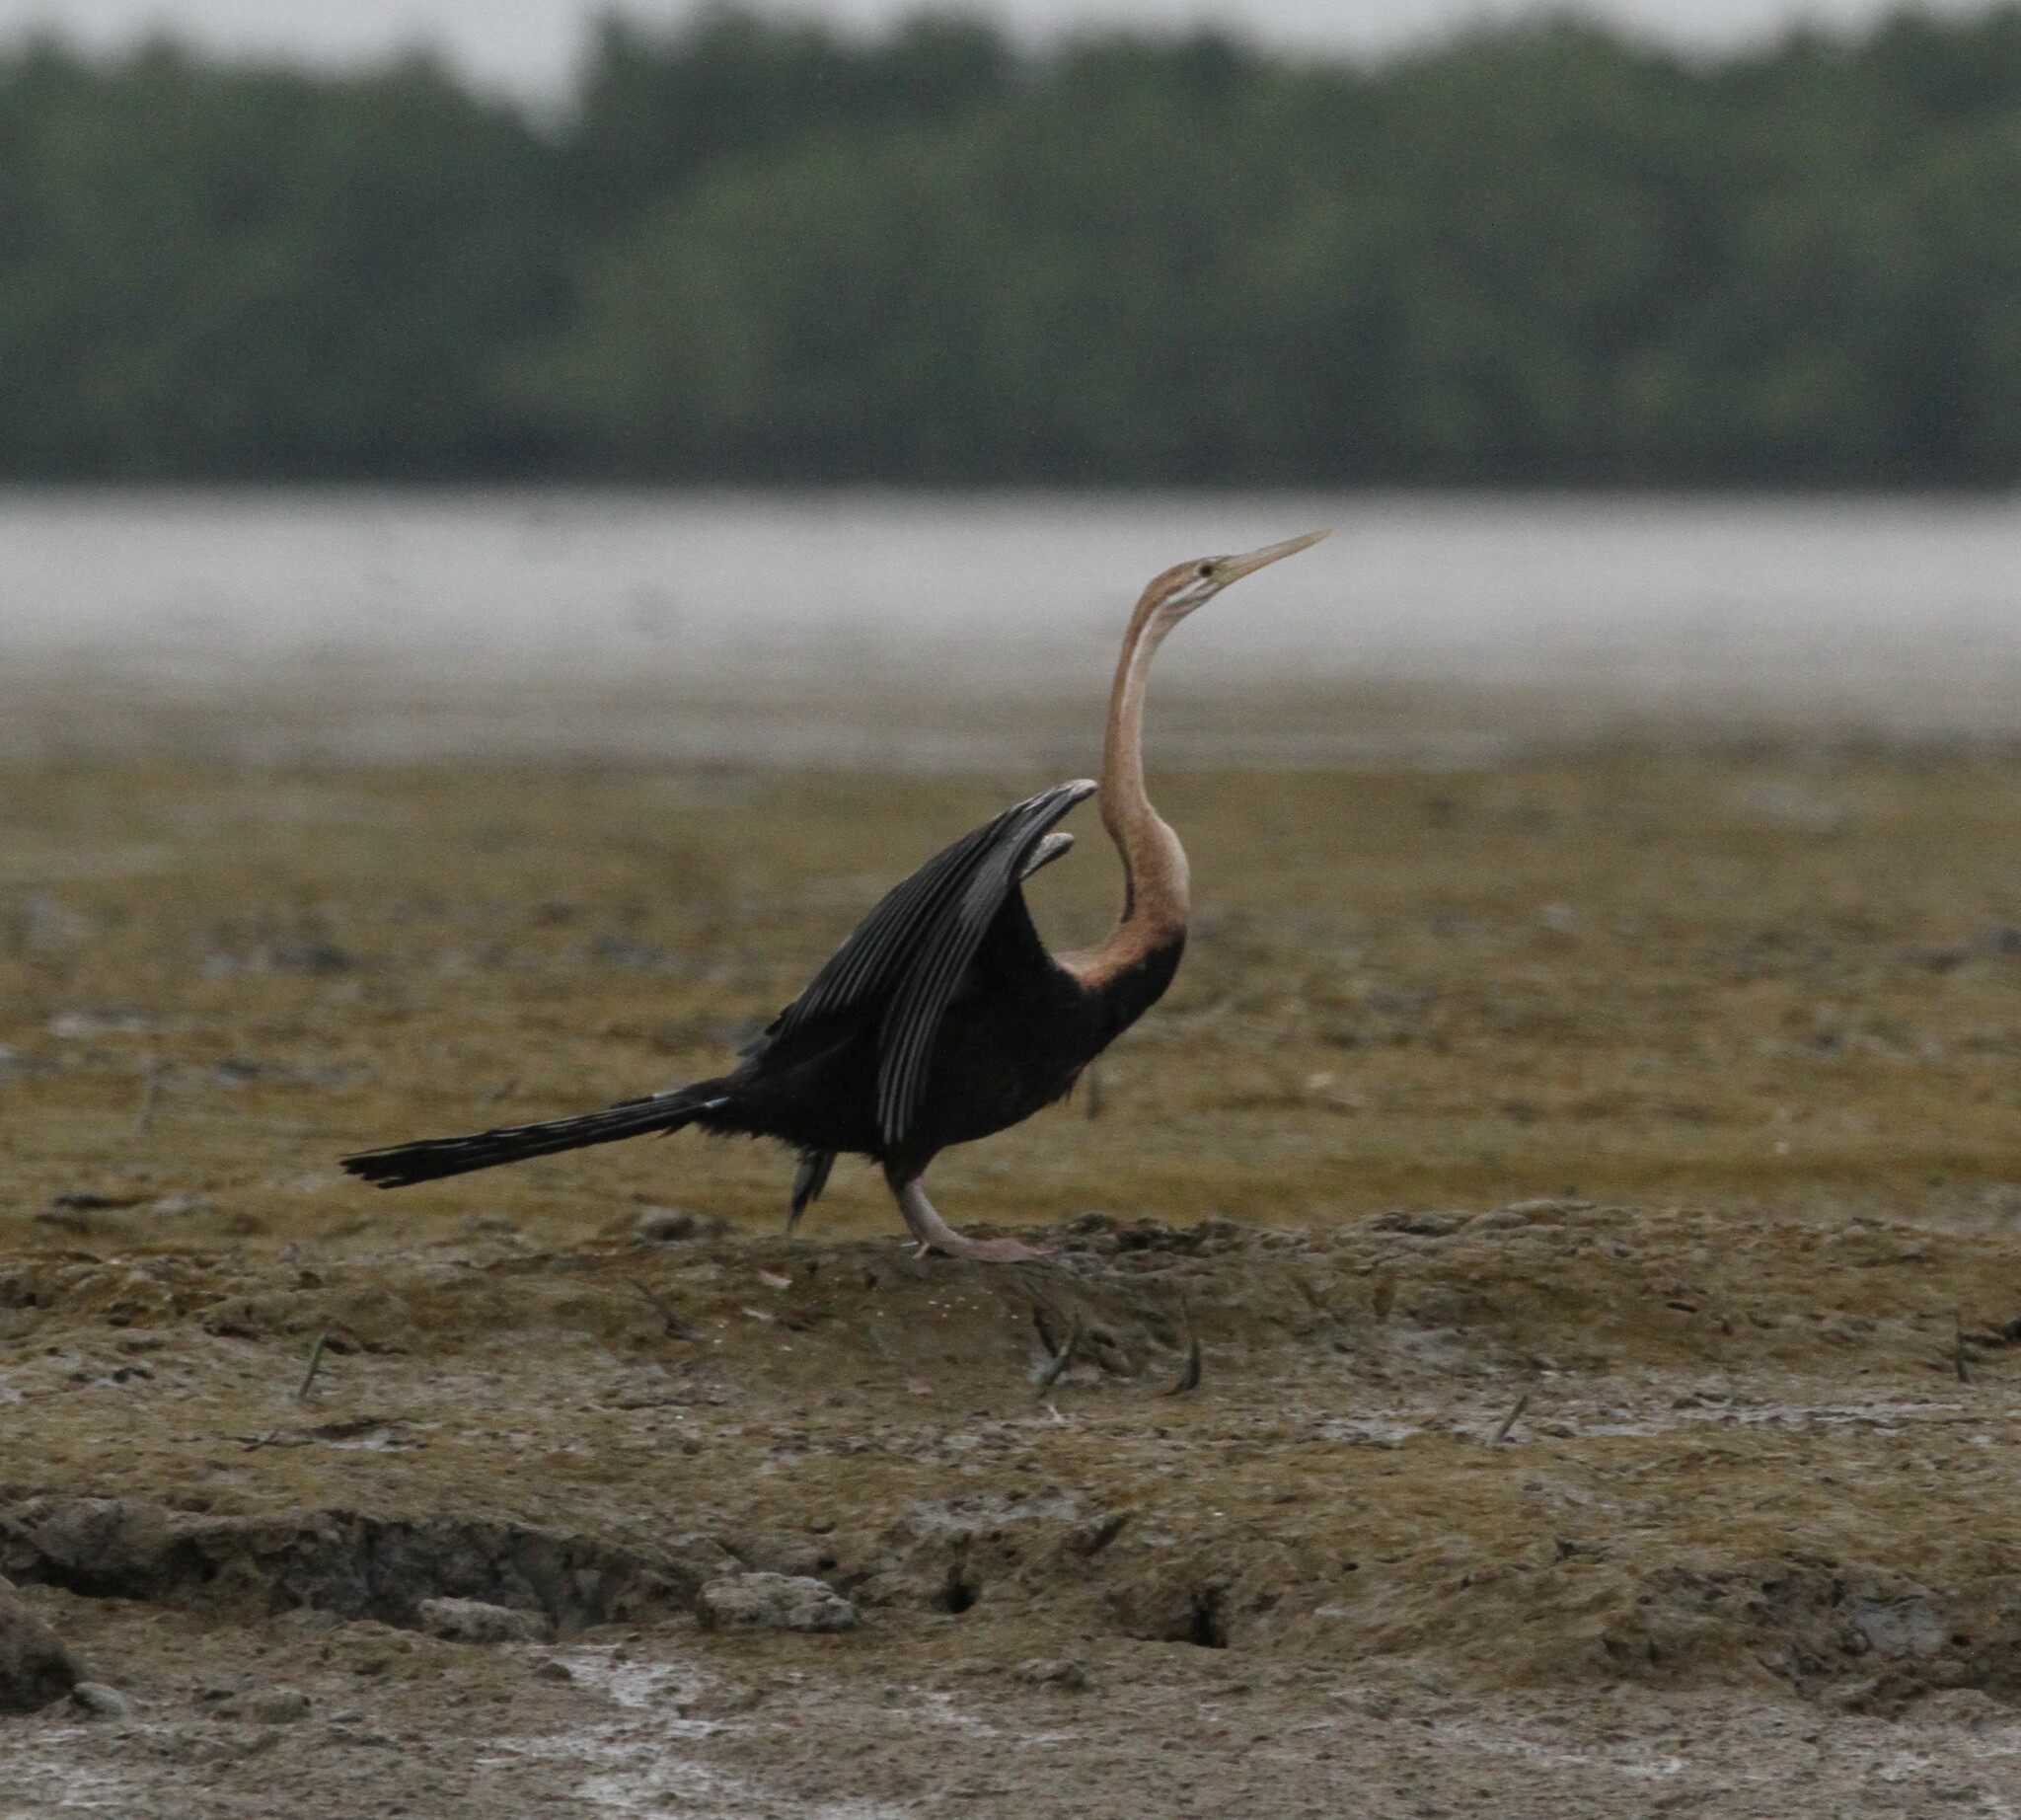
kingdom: Animalia
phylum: Chordata
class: Aves
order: Suliformes
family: Anhingidae
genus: Anhinga
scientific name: Anhinga rufa
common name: African darter
